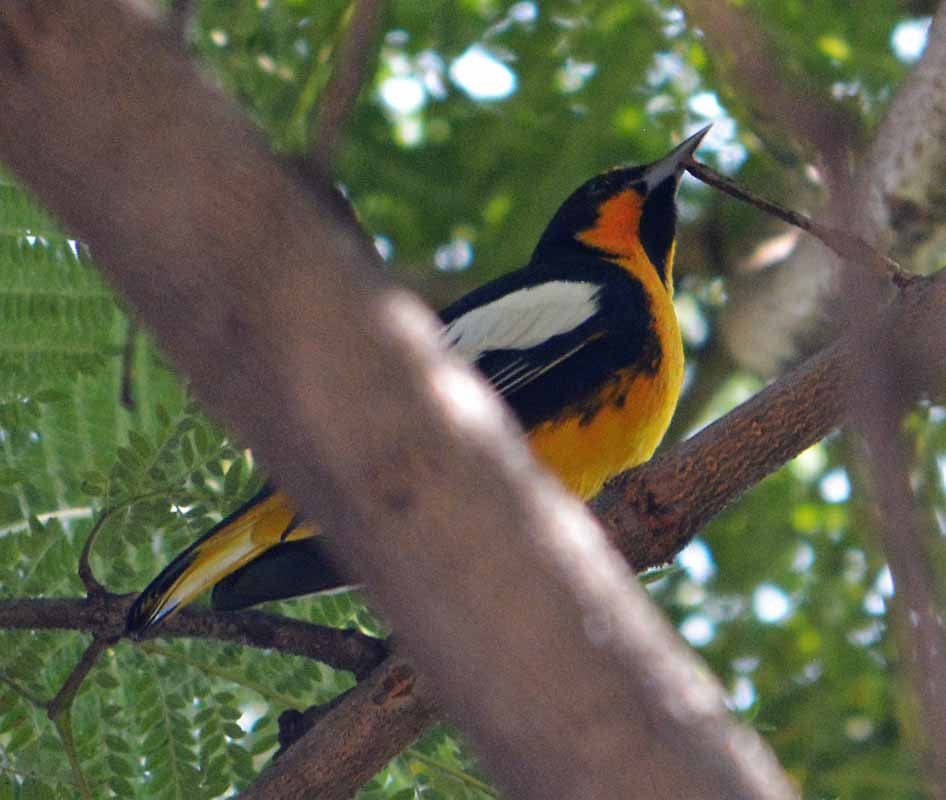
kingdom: Animalia
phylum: Chordata
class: Aves
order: Passeriformes
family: Icteridae
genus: Icterus
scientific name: Icterus abeillei
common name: Black-backed oriole
